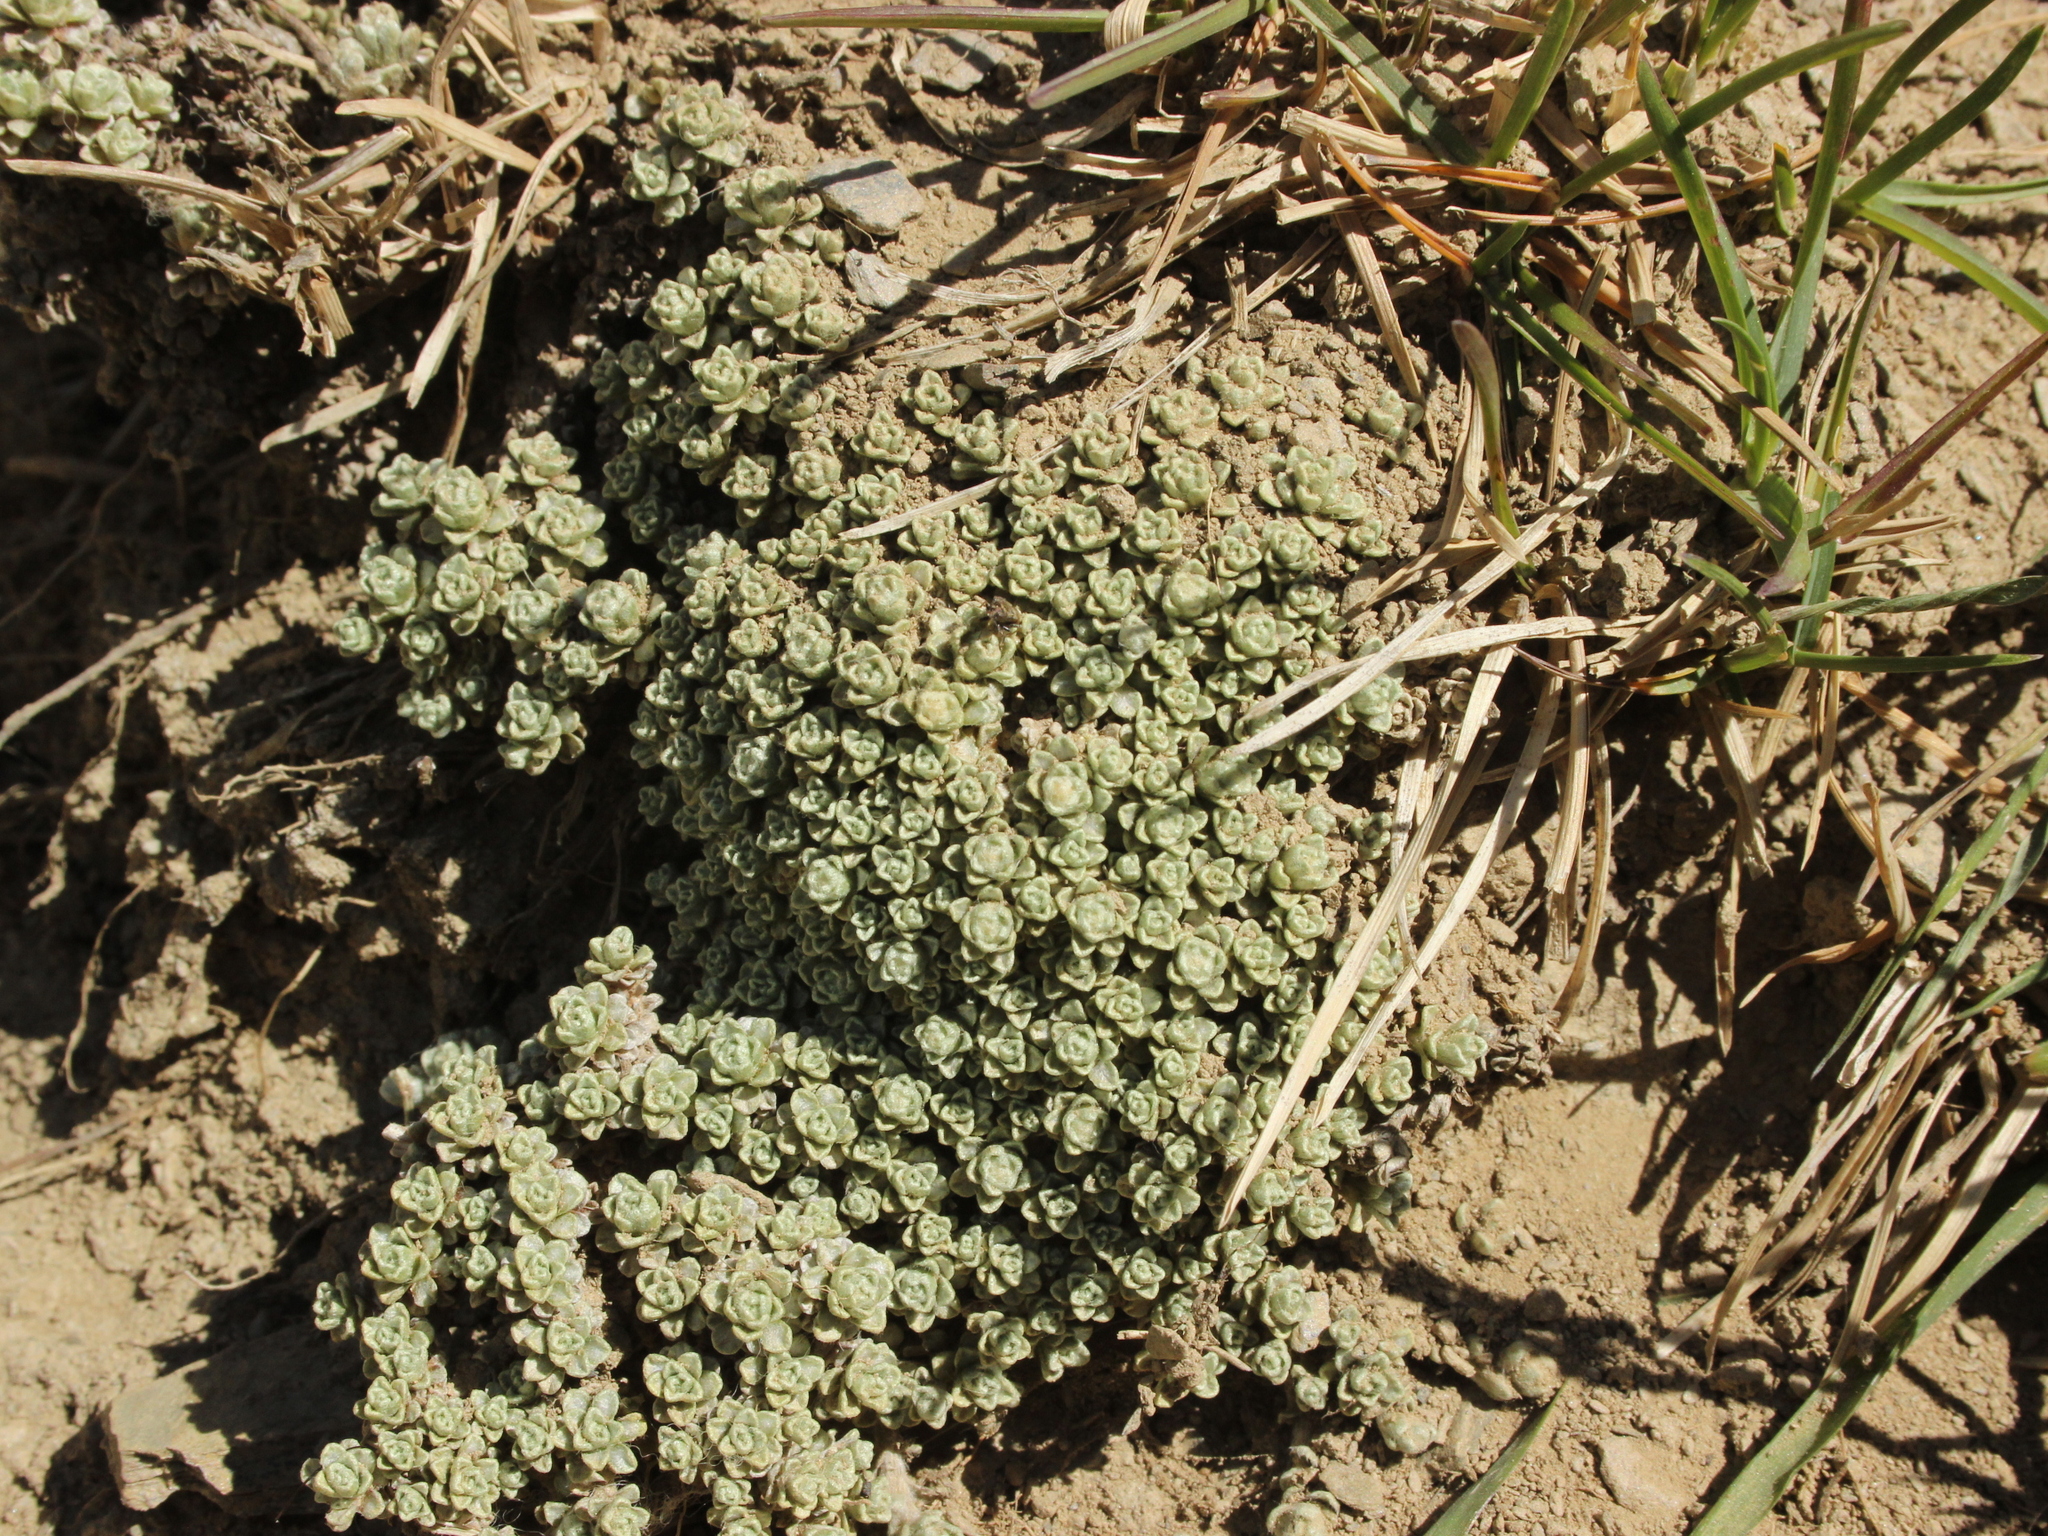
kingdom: Plantae
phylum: Tracheophyta
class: Magnoliopsida
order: Asterales
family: Asteraceae
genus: Raoulia
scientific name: Raoulia parkii
